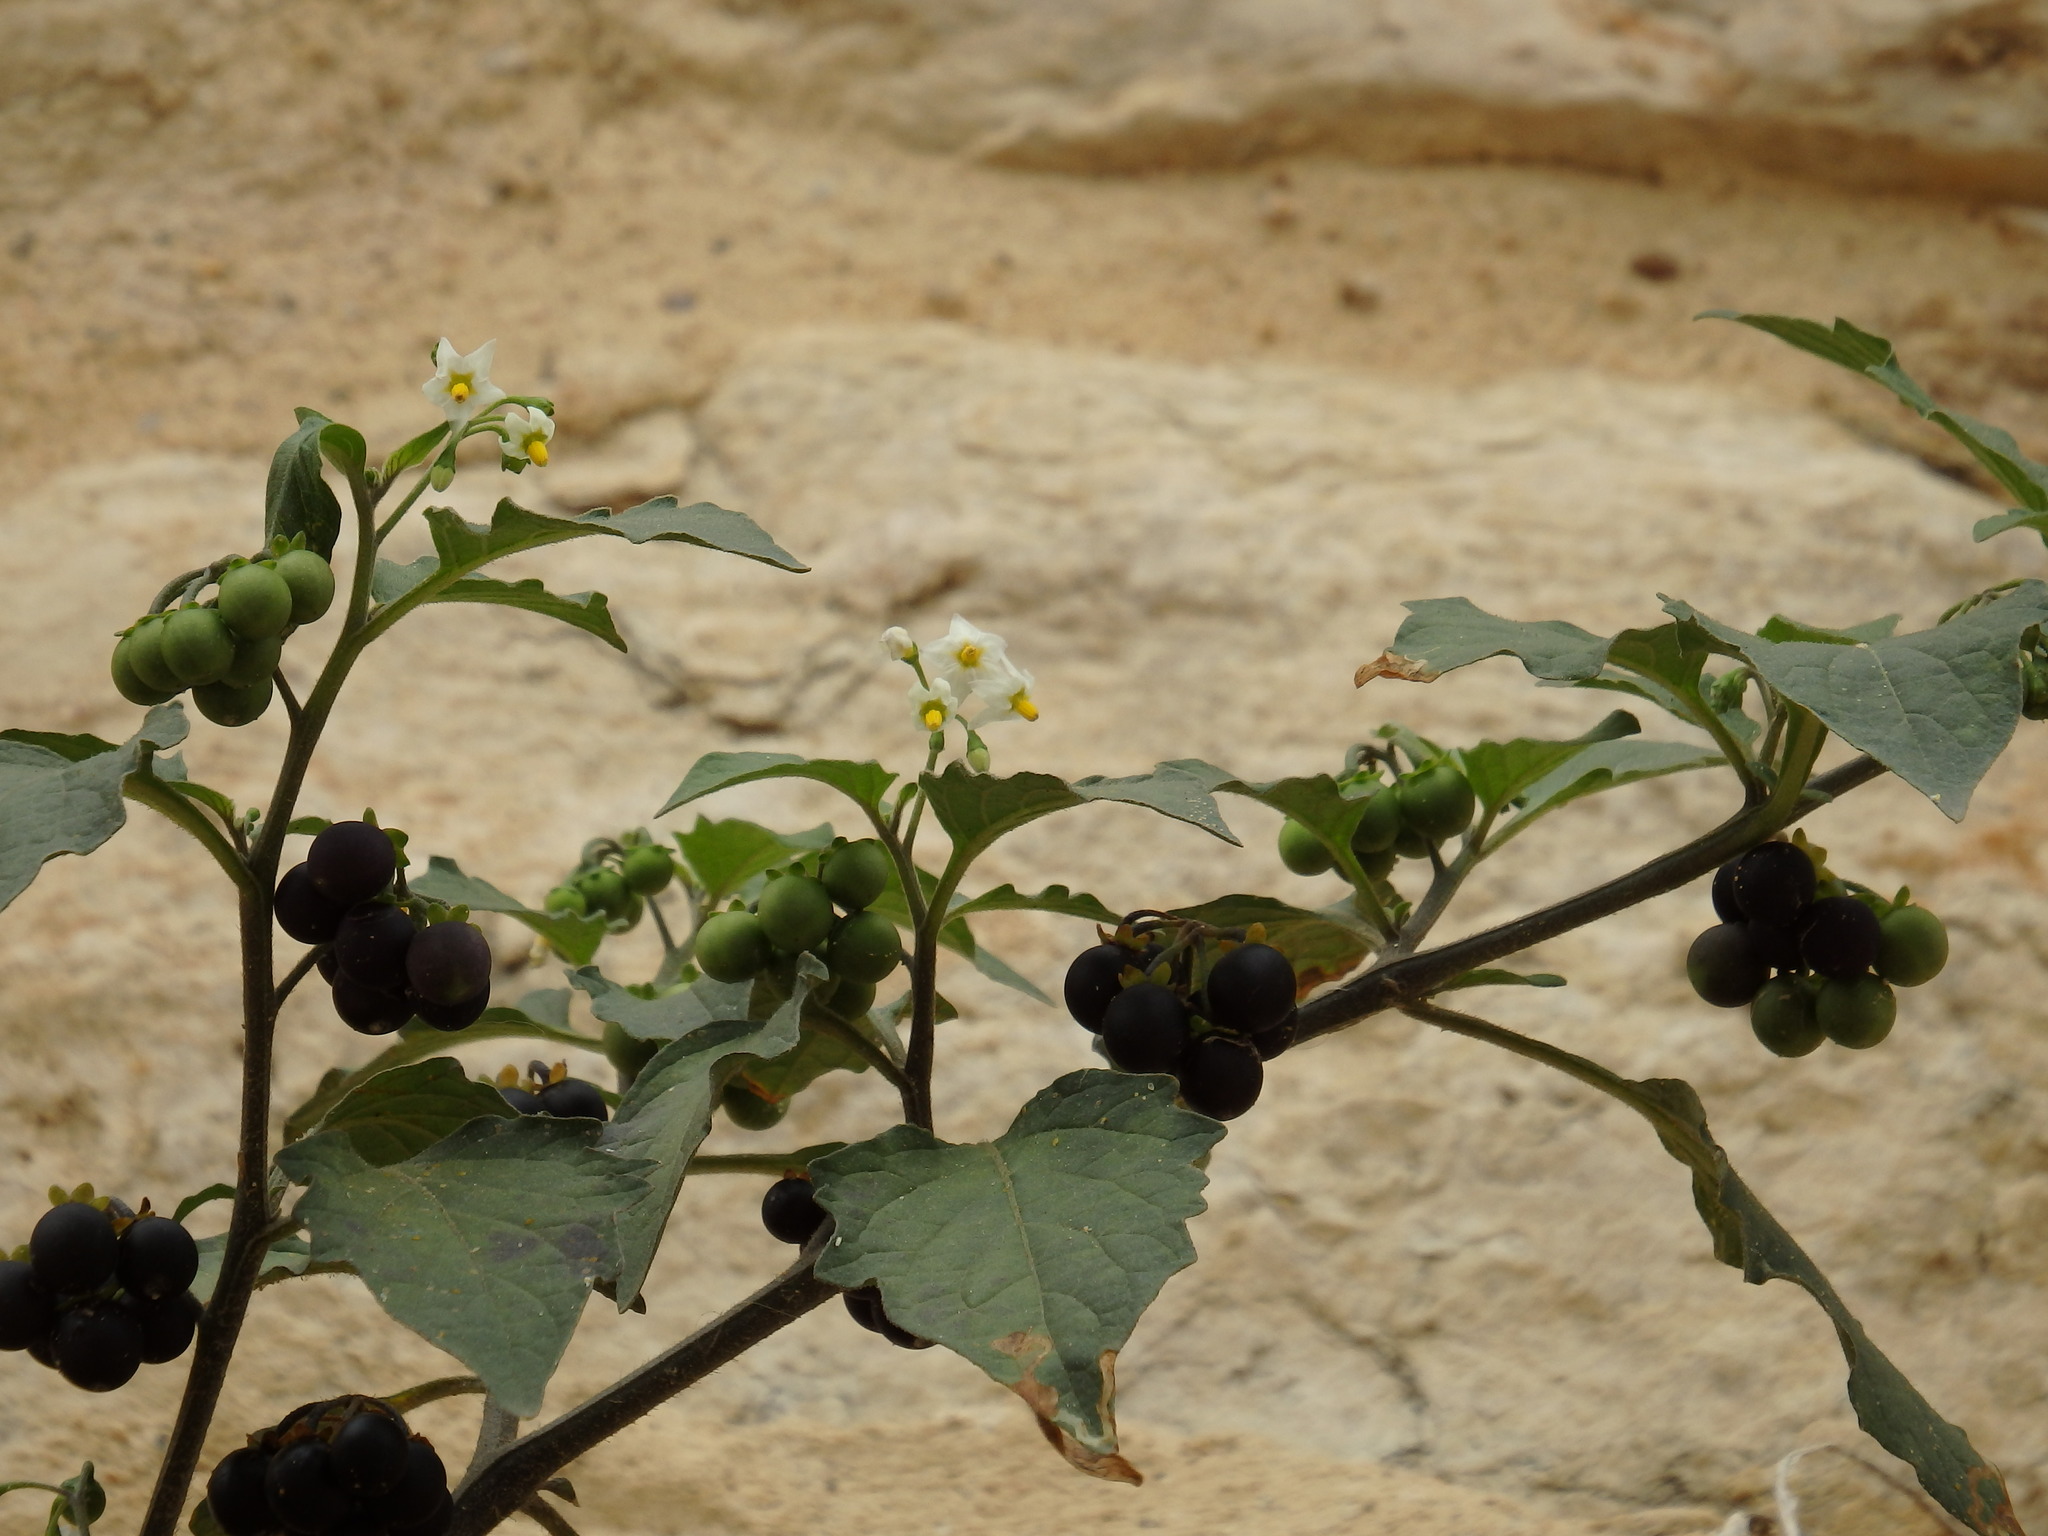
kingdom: Plantae
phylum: Tracheophyta
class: Magnoliopsida
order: Solanales
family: Solanaceae
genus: Solanum
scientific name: Solanum nigrum
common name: Black nightshade
